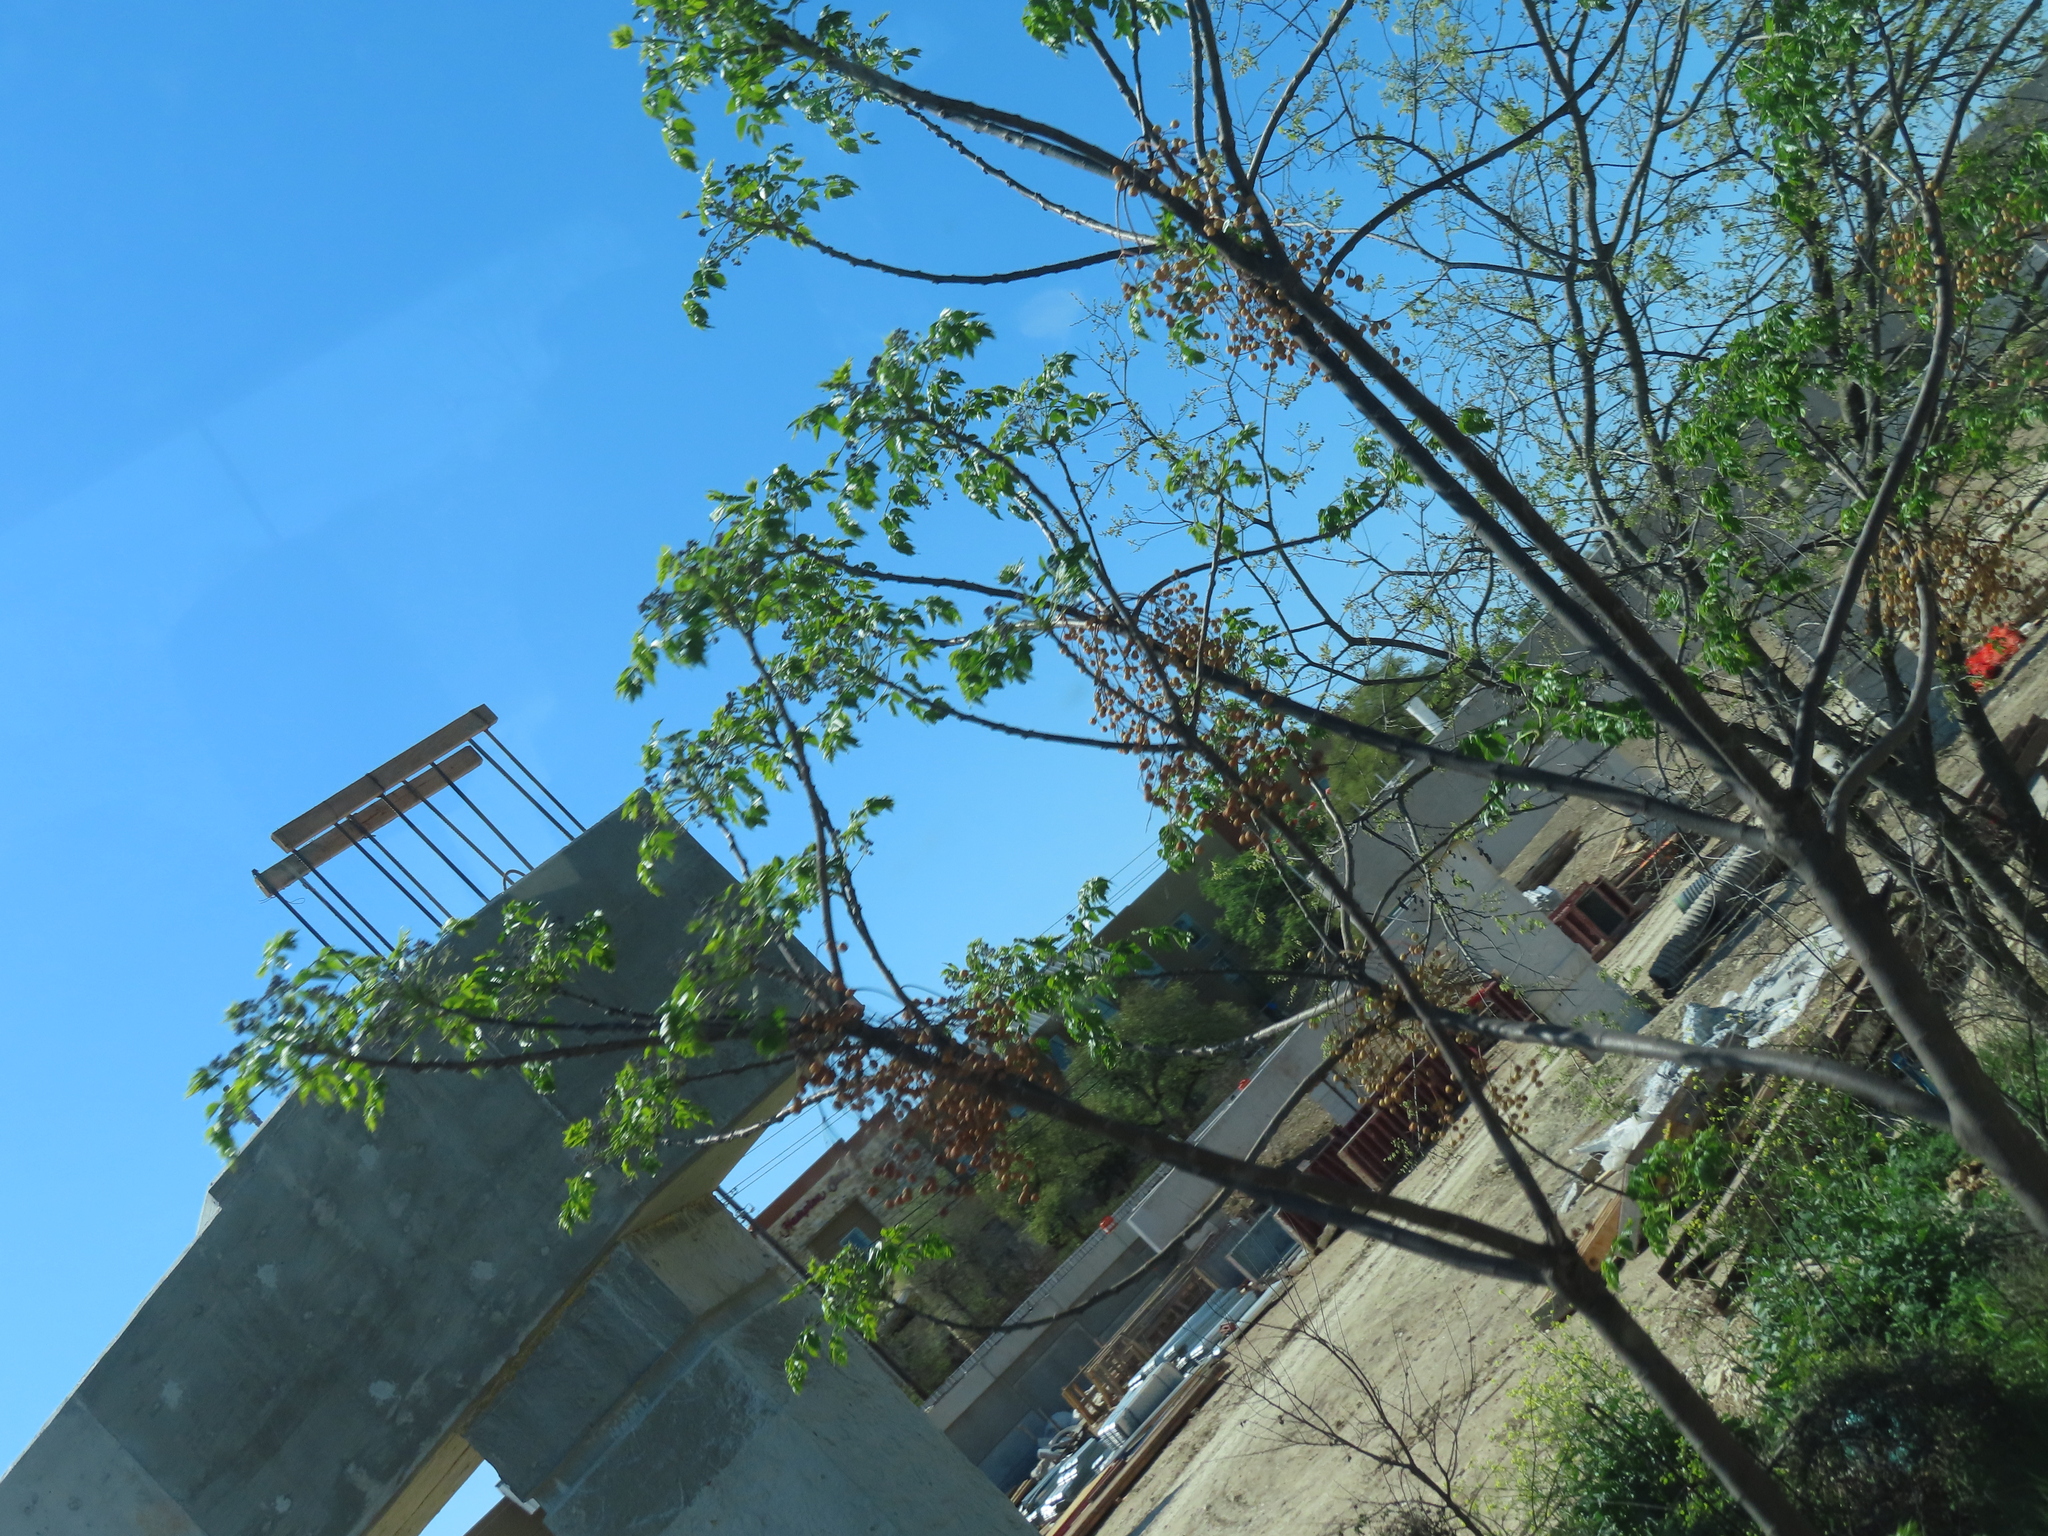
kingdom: Plantae
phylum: Tracheophyta
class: Magnoliopsida
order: Sapindales
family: Meliaceae
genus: Melia
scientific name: Melia azedarach
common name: Chinaberrytree
